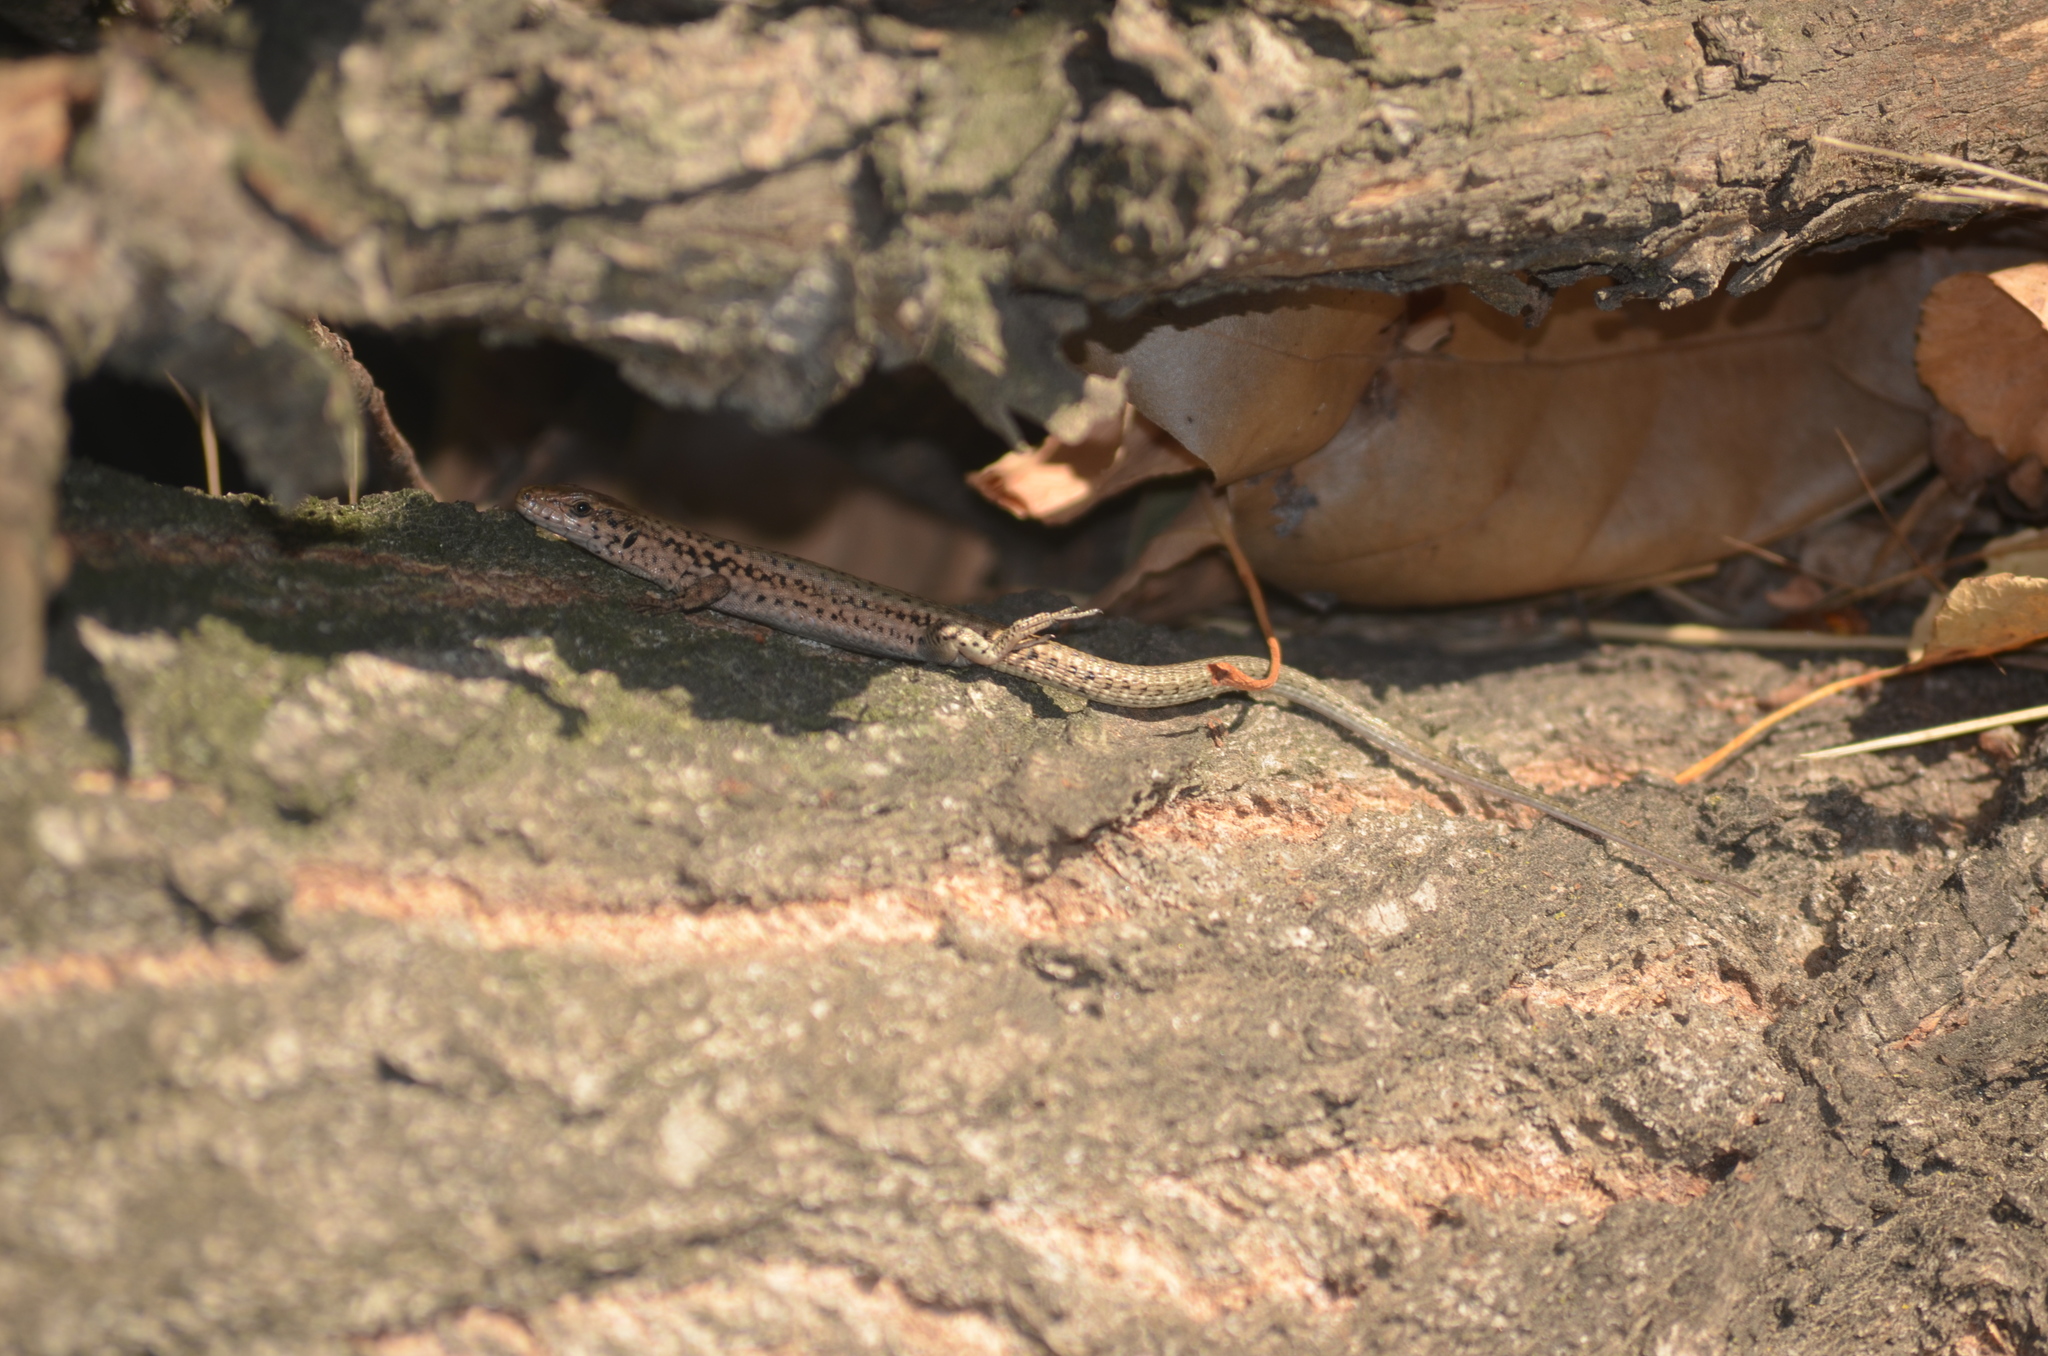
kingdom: Animalia
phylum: Chordata
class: Squamata
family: Lacertidae
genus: Podarcis
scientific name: Podarcis liolepis
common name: Catalonian wall lizard
